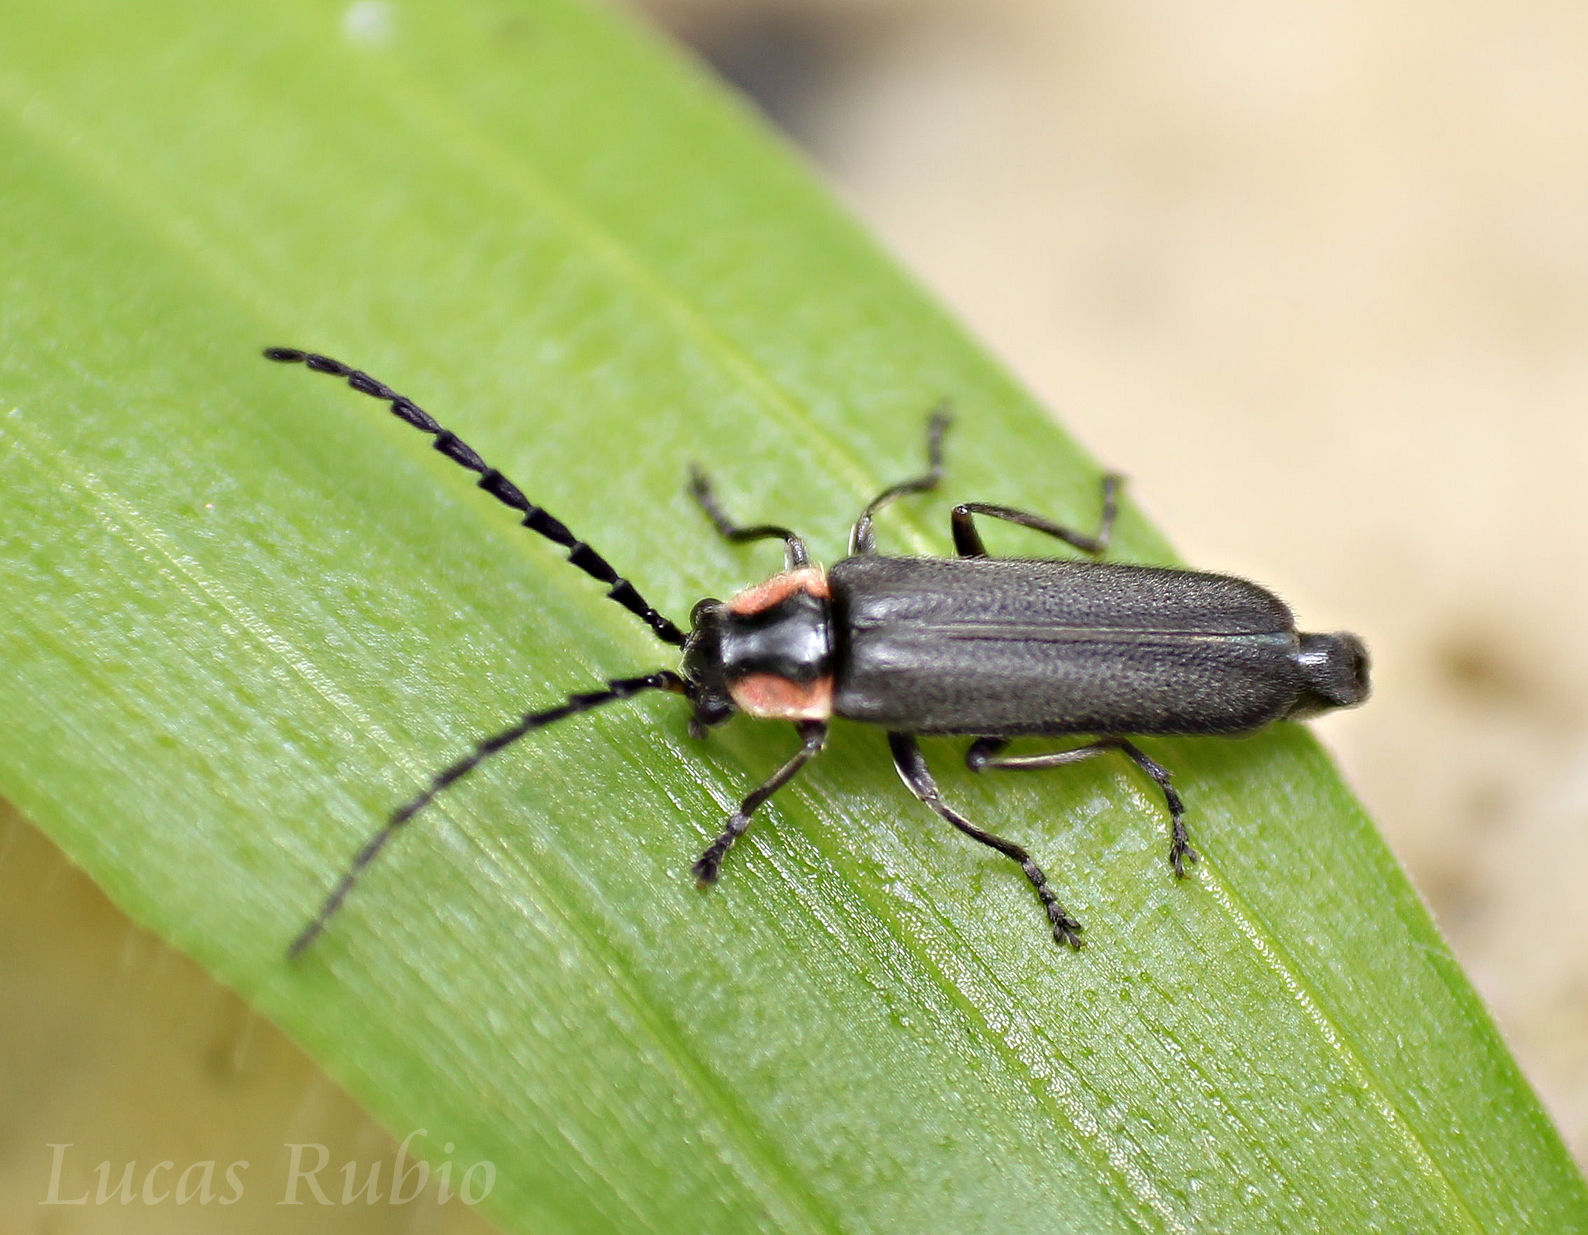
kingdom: Animalia
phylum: Arthropoda
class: Insecta
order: Coleoptera
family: Cantharidae
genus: Discodon
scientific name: Discodon
